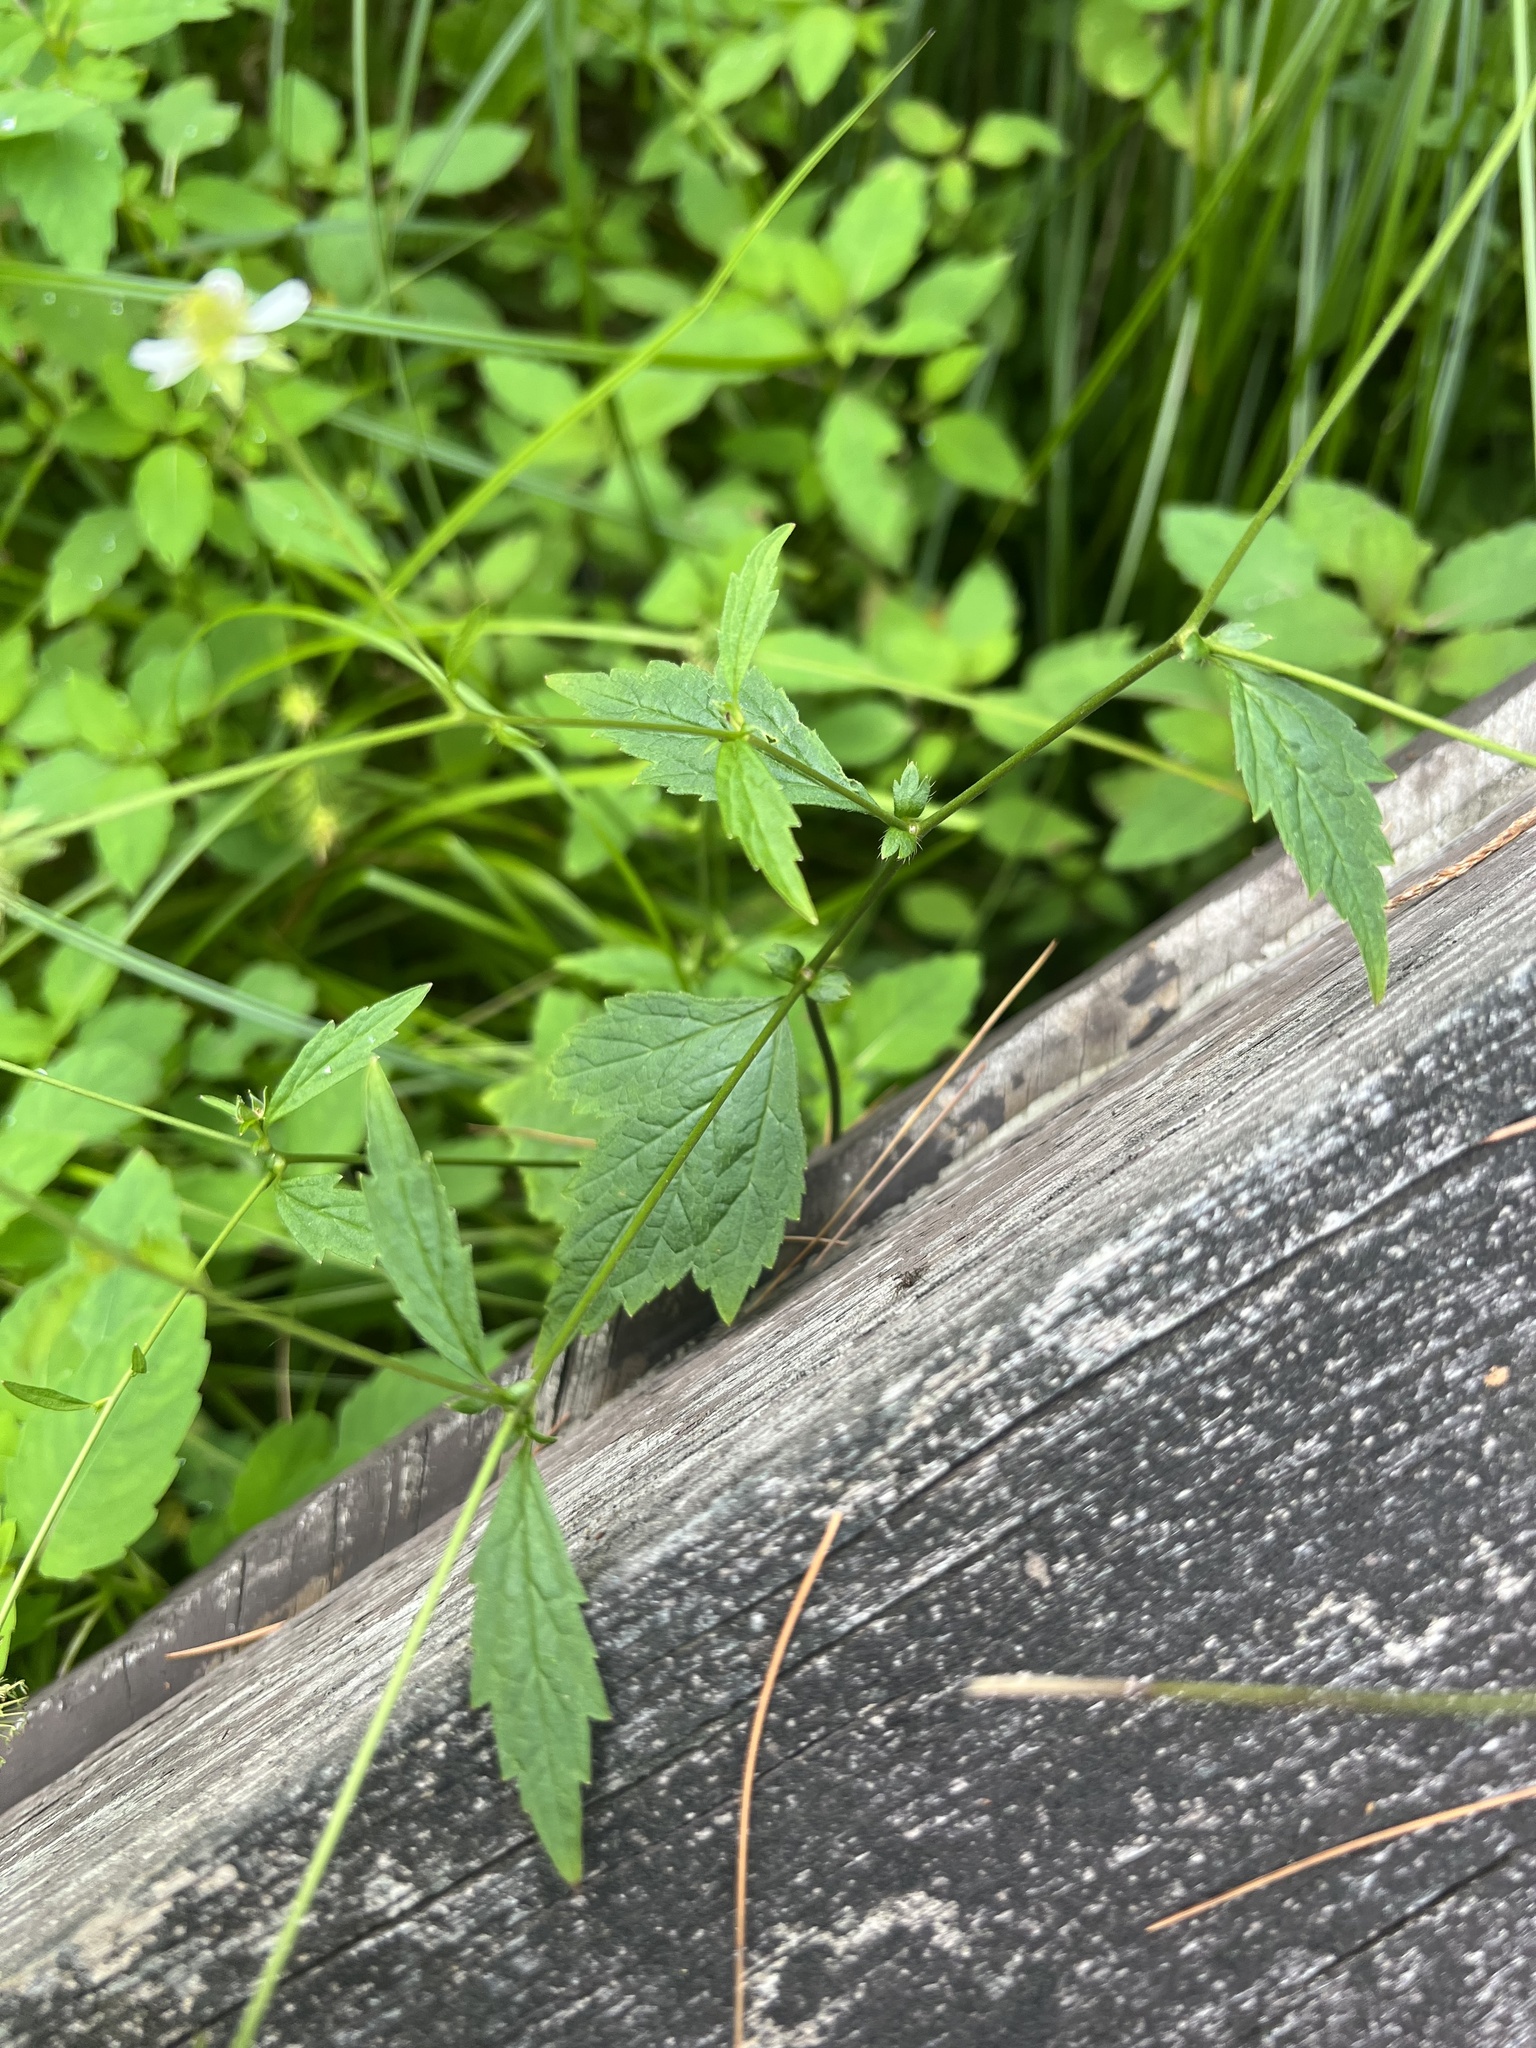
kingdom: Plantae
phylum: Tracheophyta
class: Magnoliopsida
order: Rosales
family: Rosaceae
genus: Geum
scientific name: Geum canadense
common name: White avens
